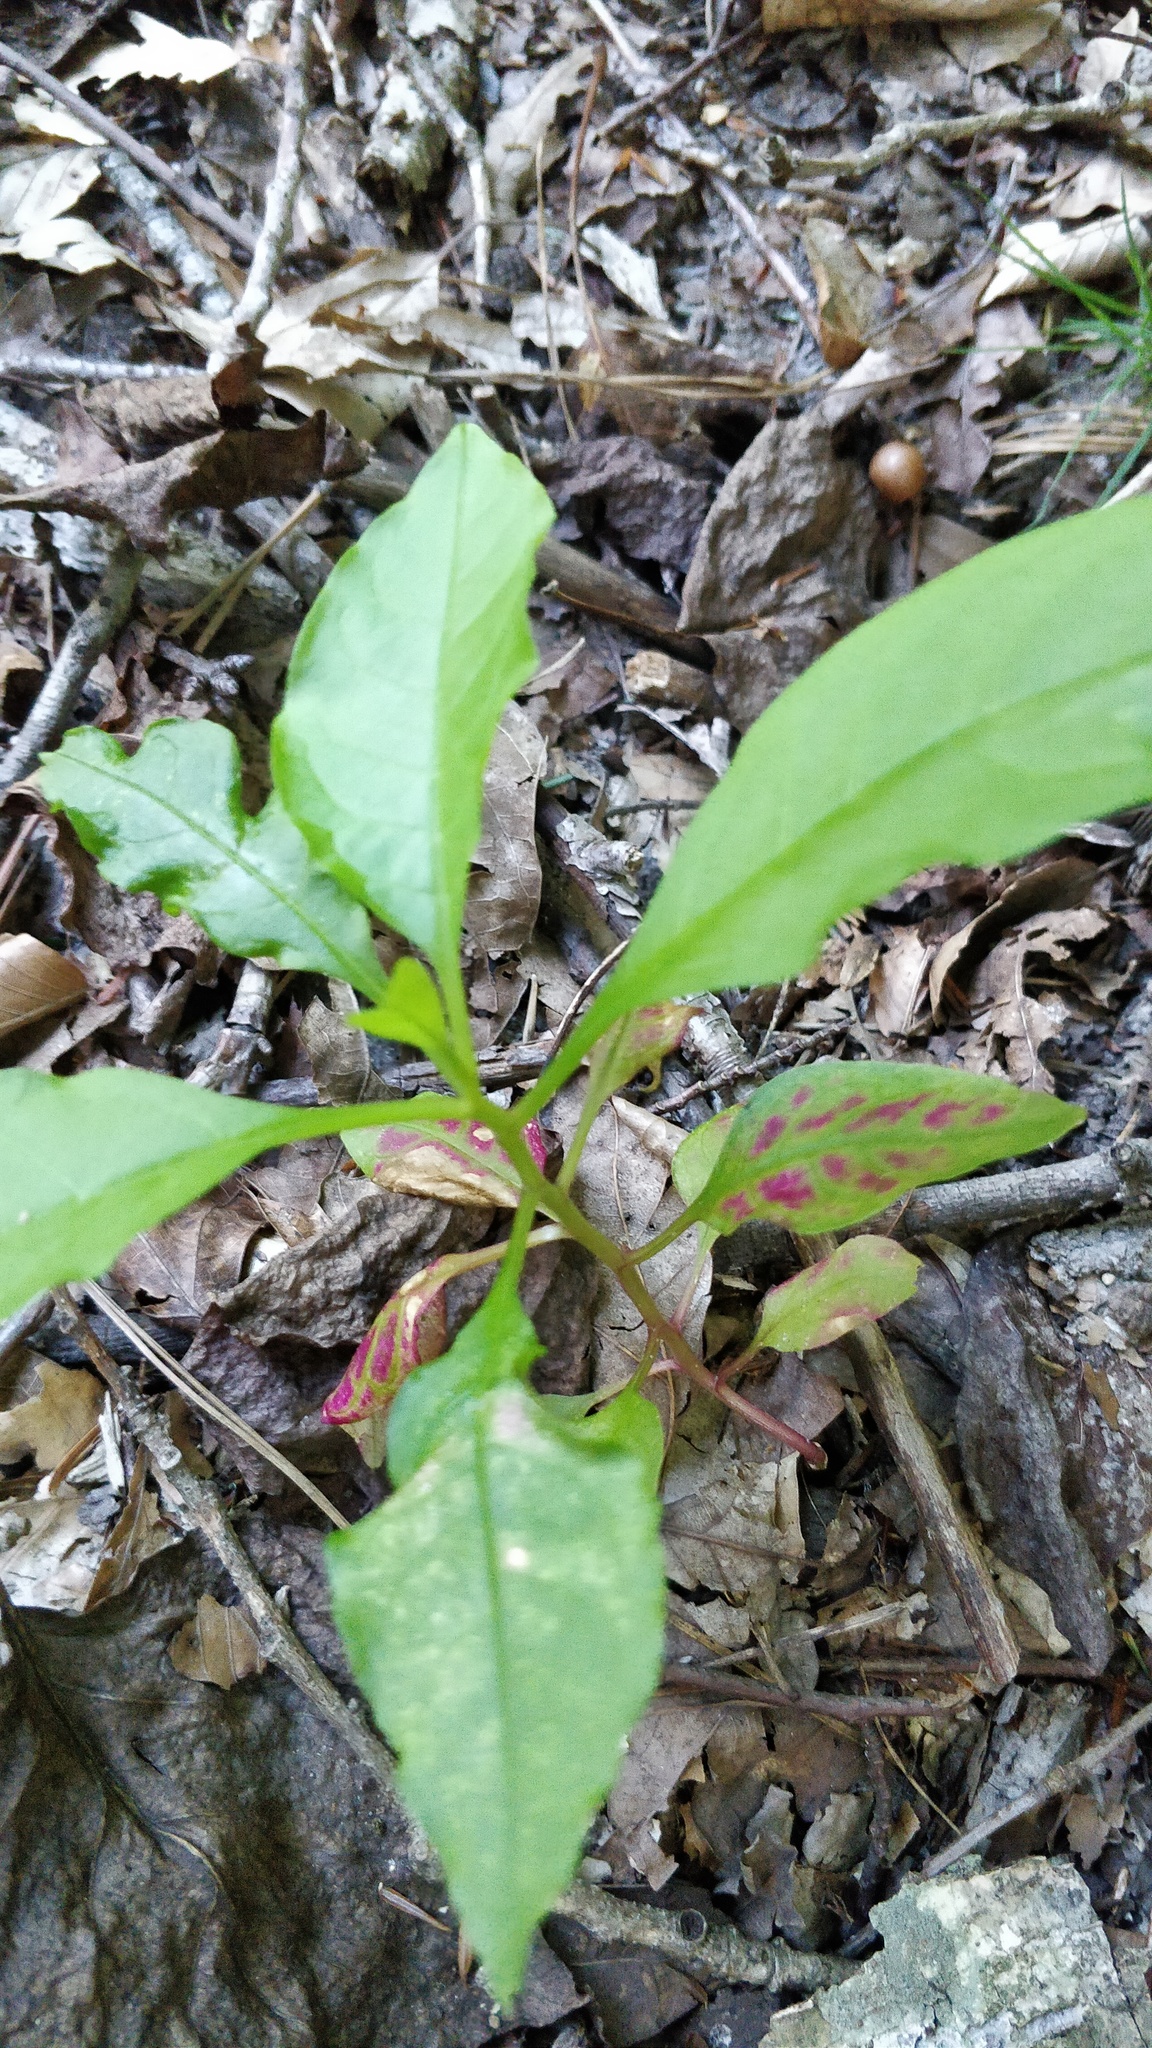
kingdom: Plantae
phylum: Tracheophyta
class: Magnoliopsida
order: Caryophyllales
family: Phytolaccaceae
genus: Phytolacca
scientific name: Phytolacca americana
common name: American pokeweed
